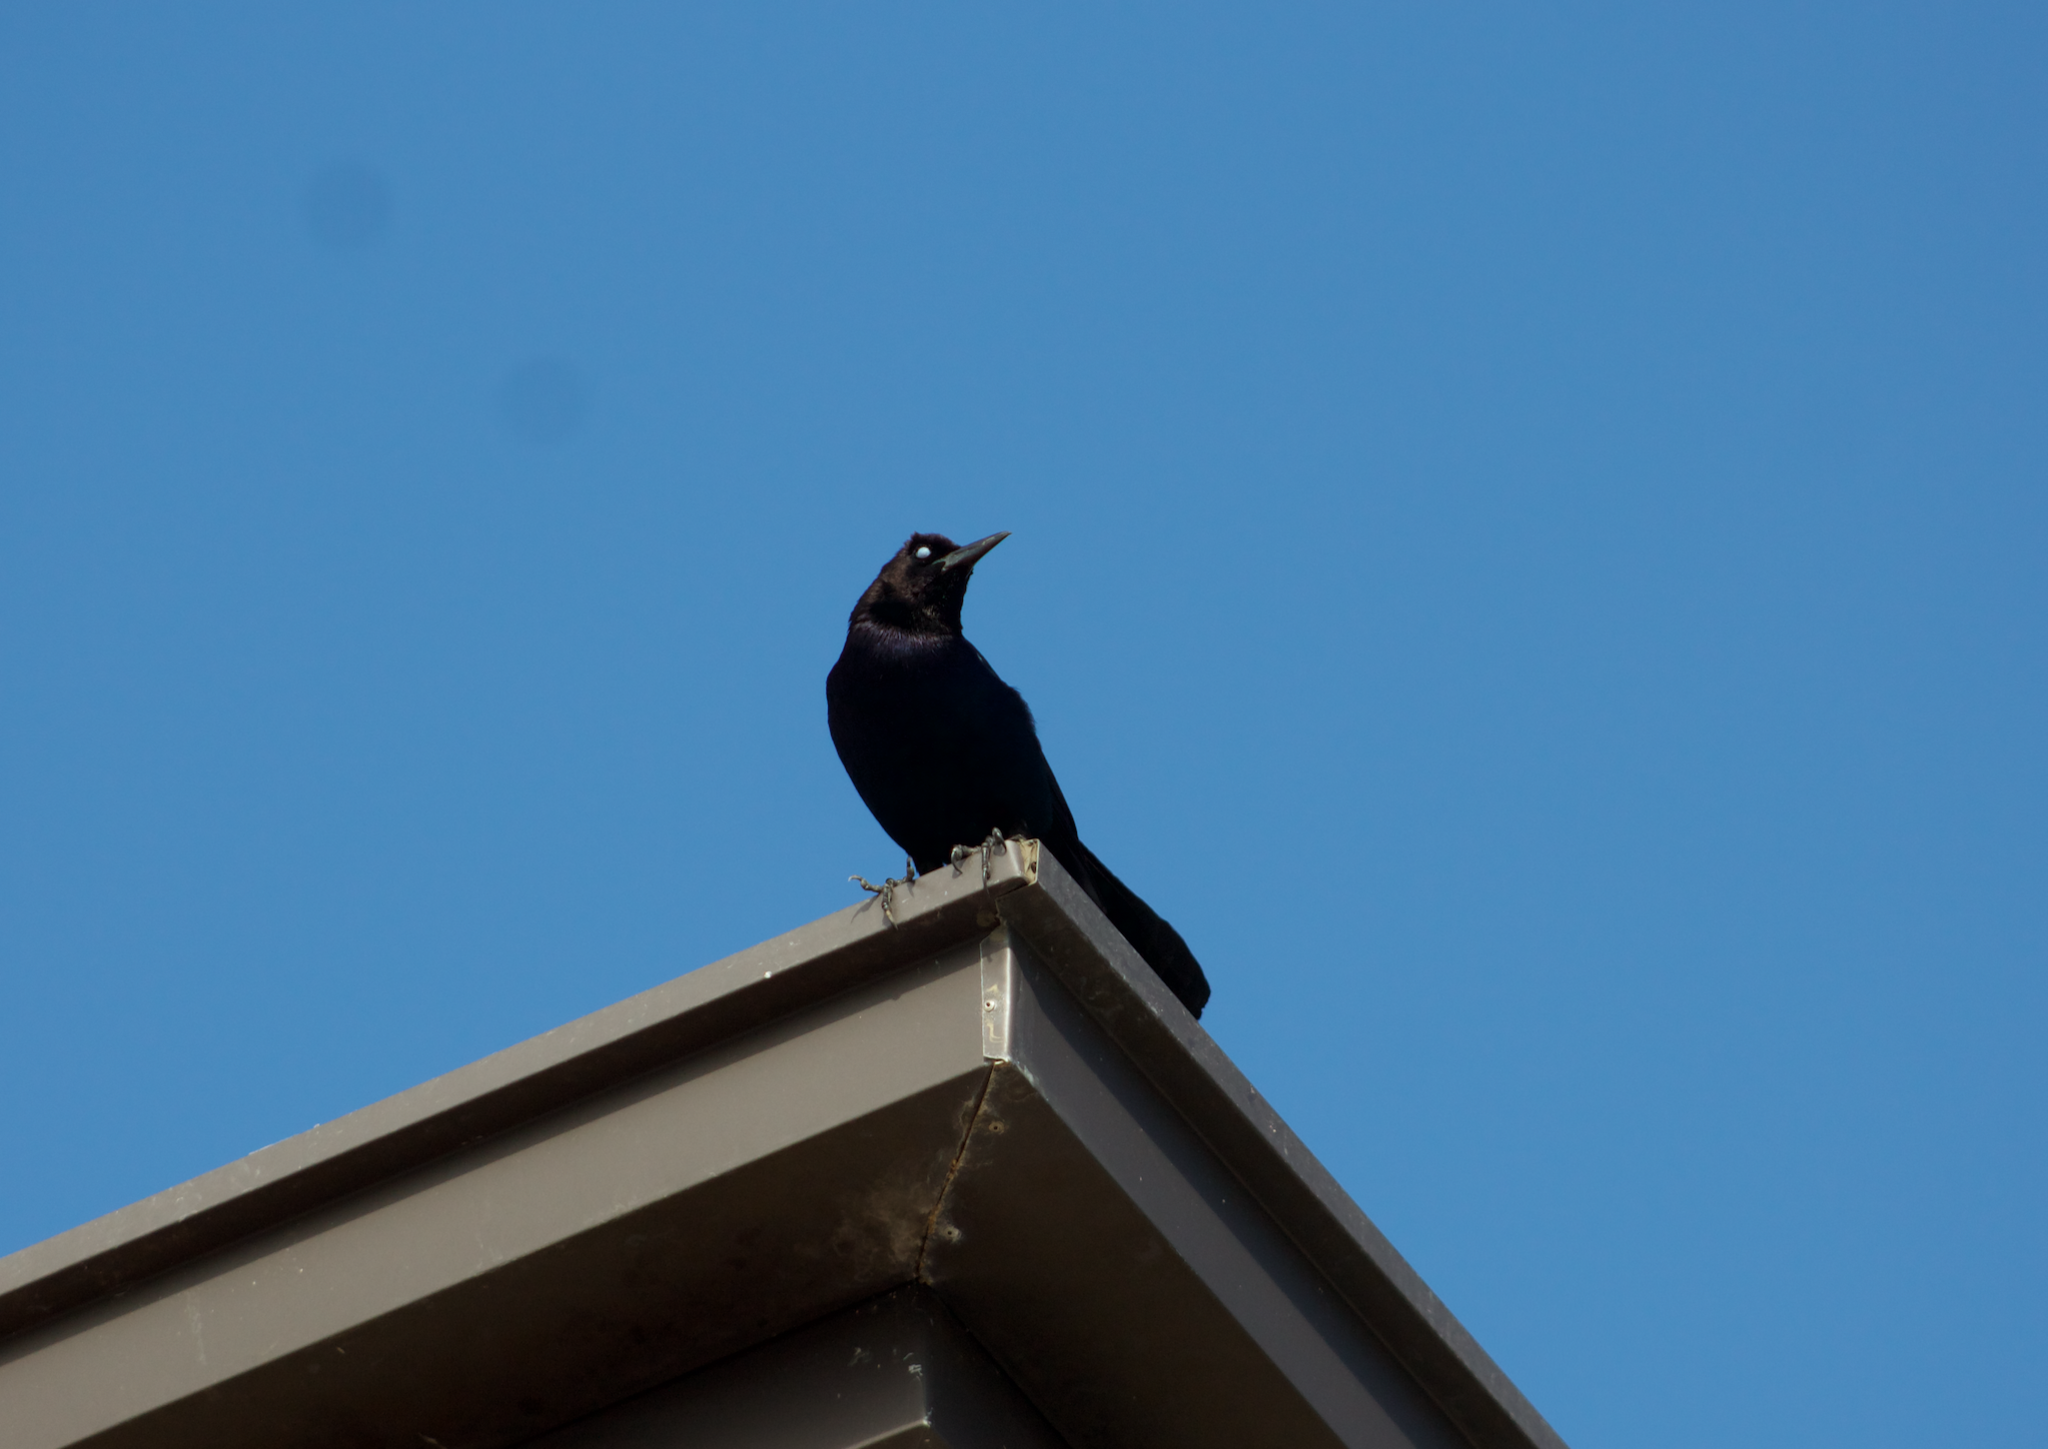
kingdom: Animalia
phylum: Chordata
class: Aves
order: Passeriformes
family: Icteridae
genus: Quiscalus
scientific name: Quiscalus major
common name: Boat-tailed grackle
